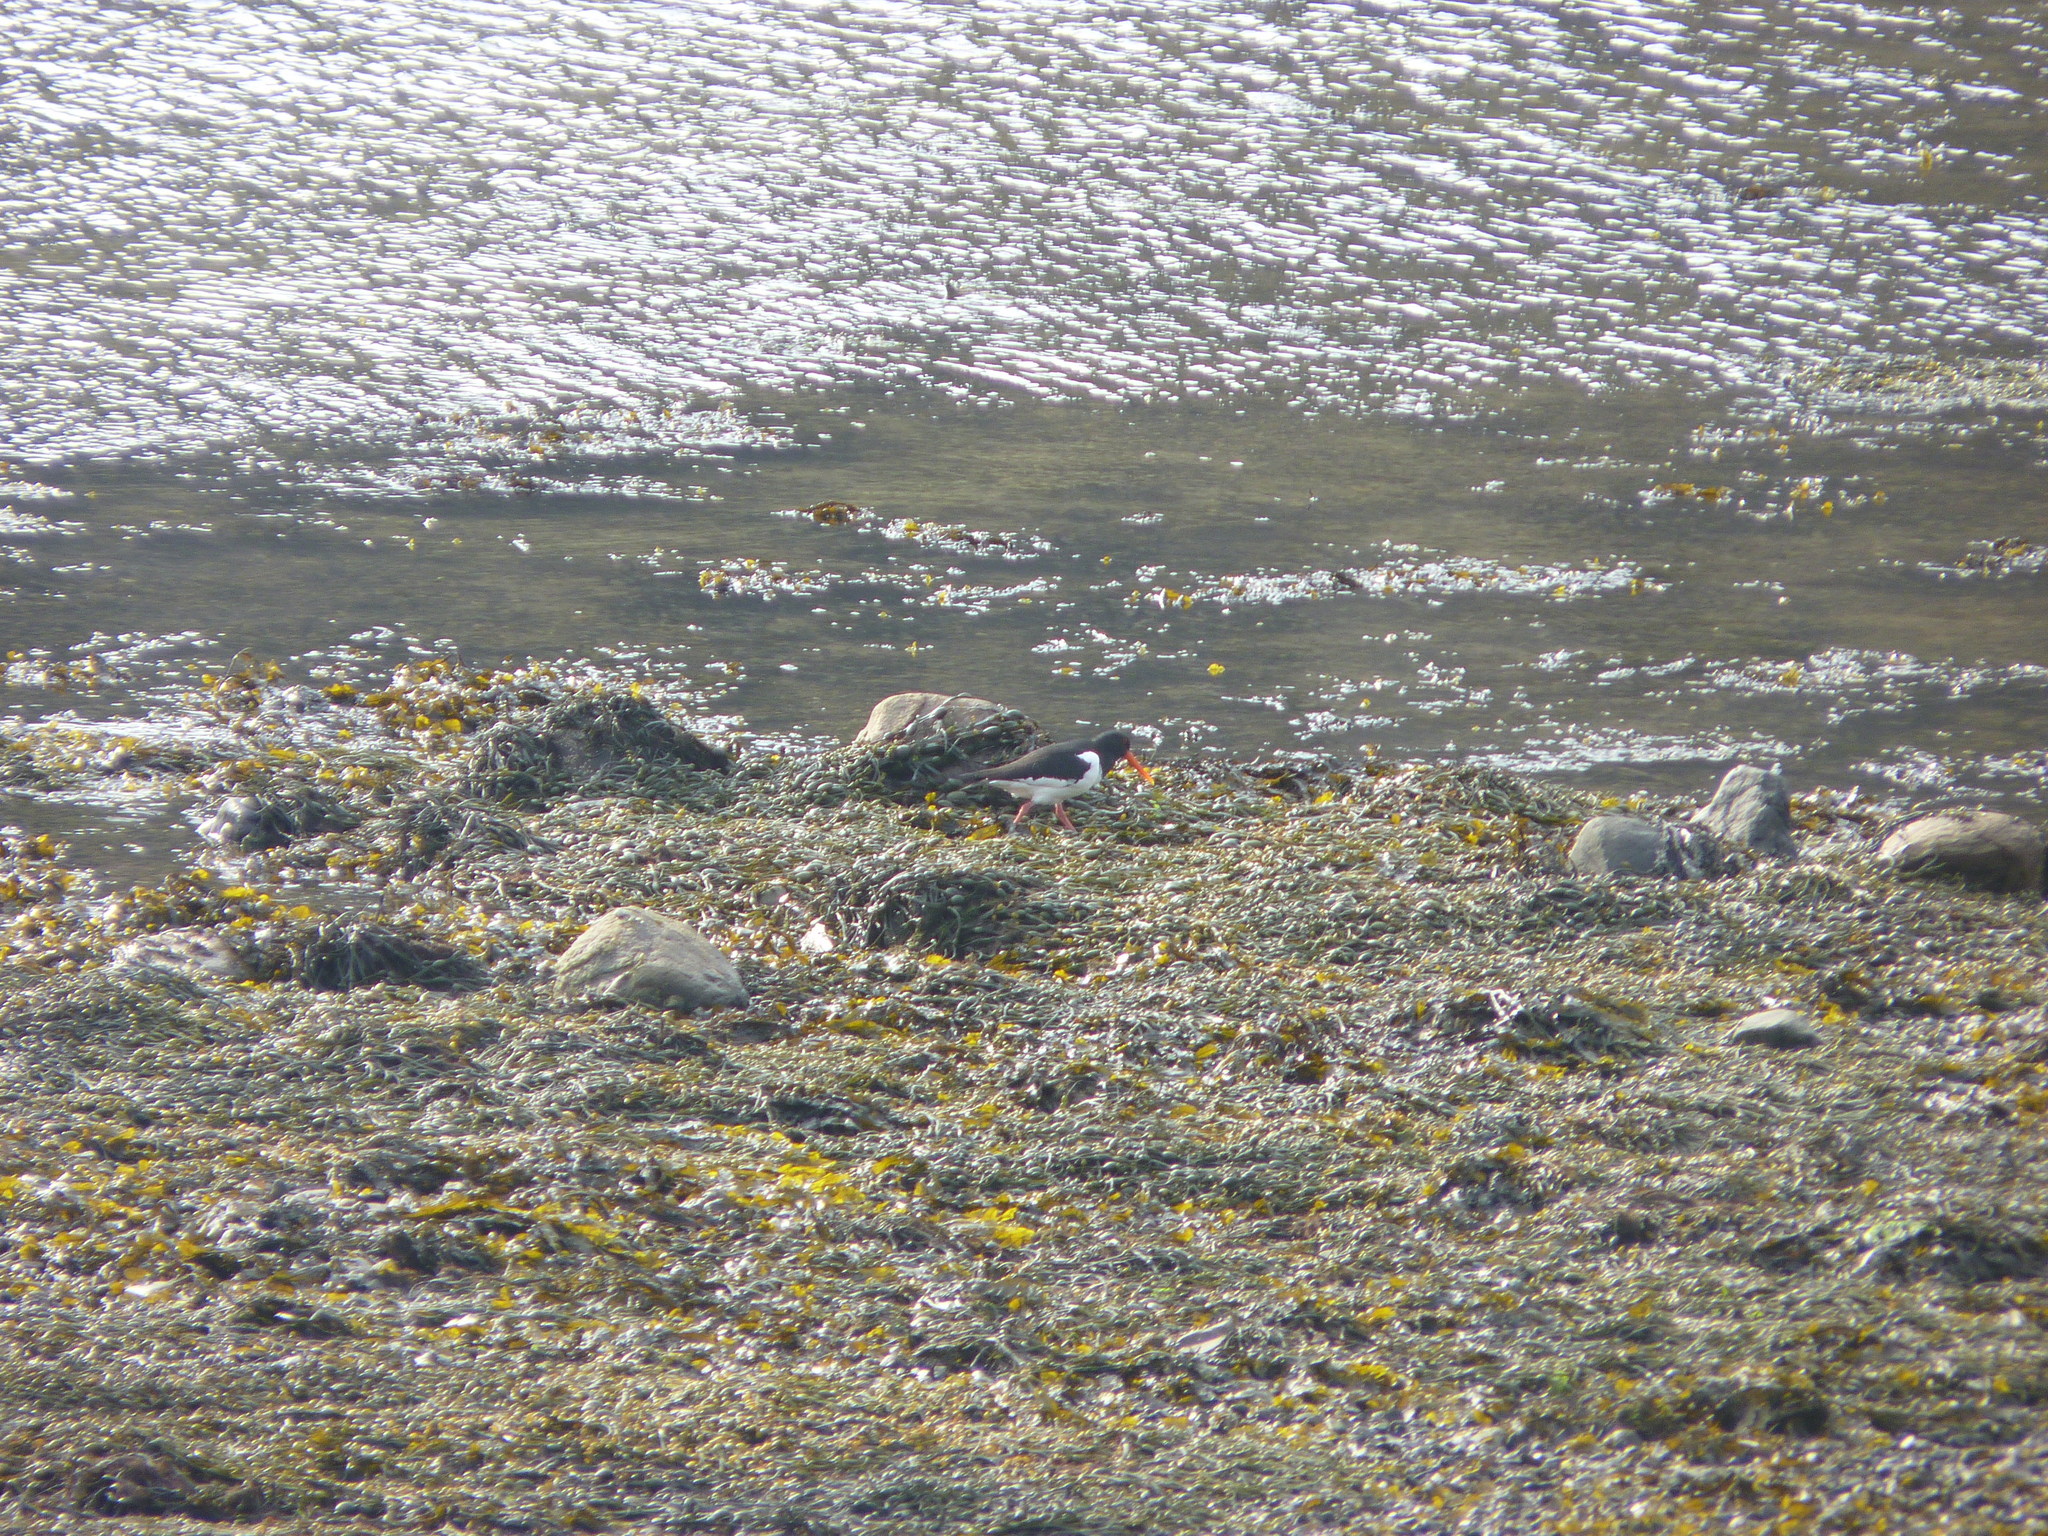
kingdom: Animalia
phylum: Chordata
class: Aves
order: Charadriiformes
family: Haematopodidae
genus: Haematopus
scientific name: Haematopus ostralegus
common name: Eurasian oystercatcher
